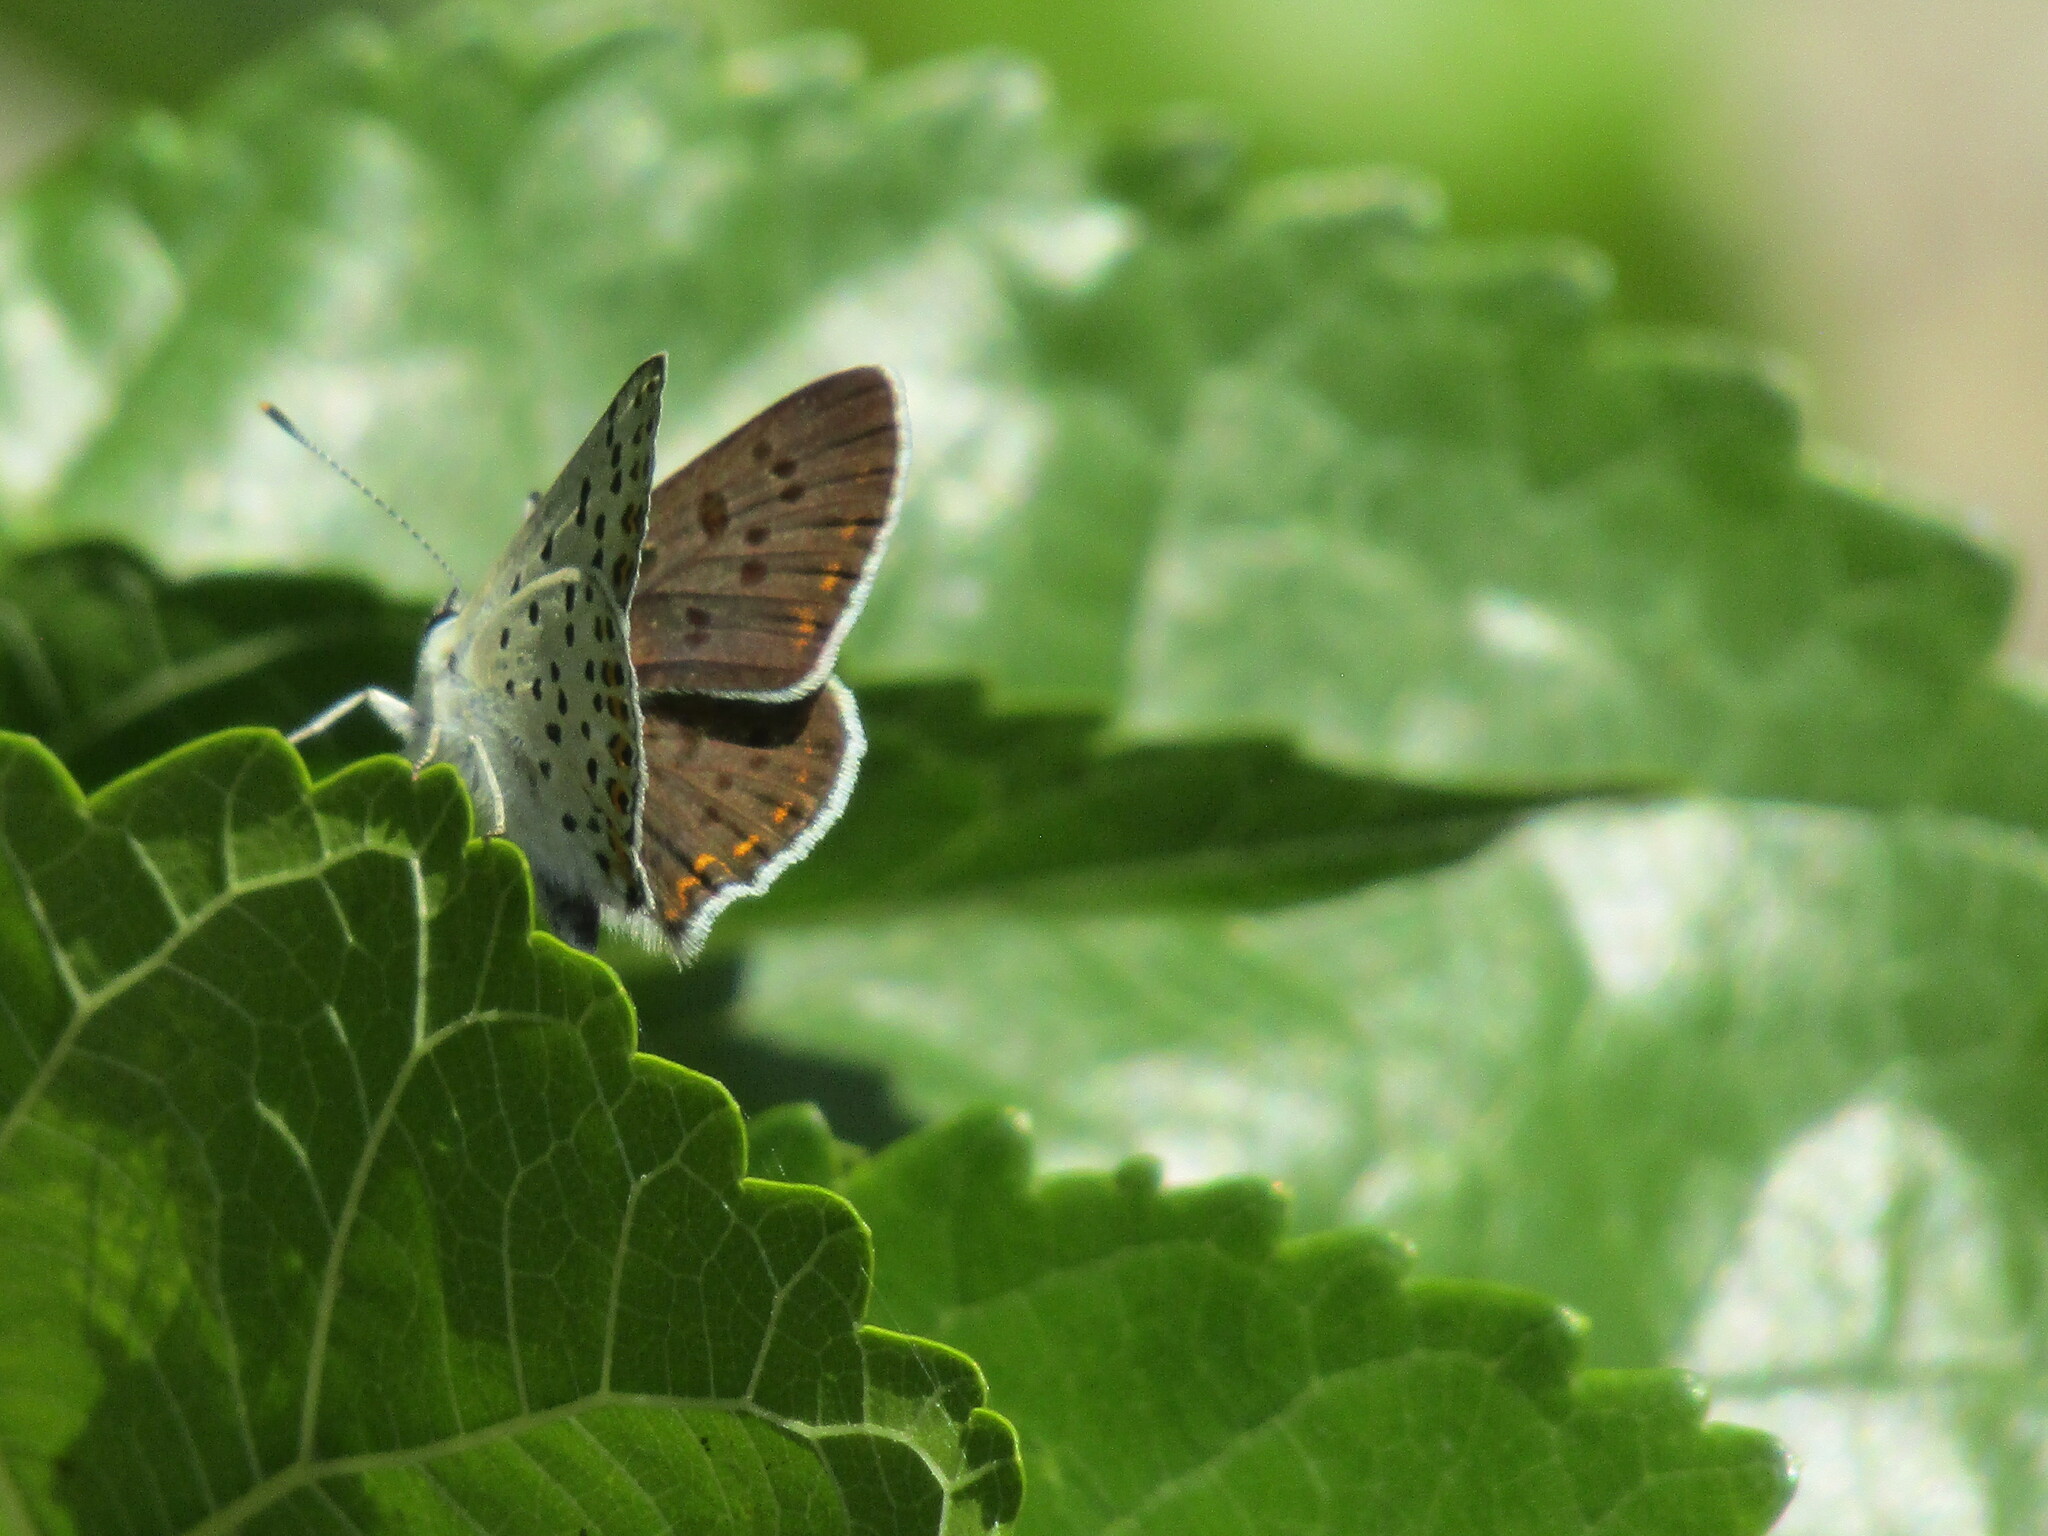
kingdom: Animalia
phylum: Arthropoda
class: Insecta
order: Lepidoptera
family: Lycaenidae
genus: Aricia
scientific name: Aricia agestis
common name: Brown argus
